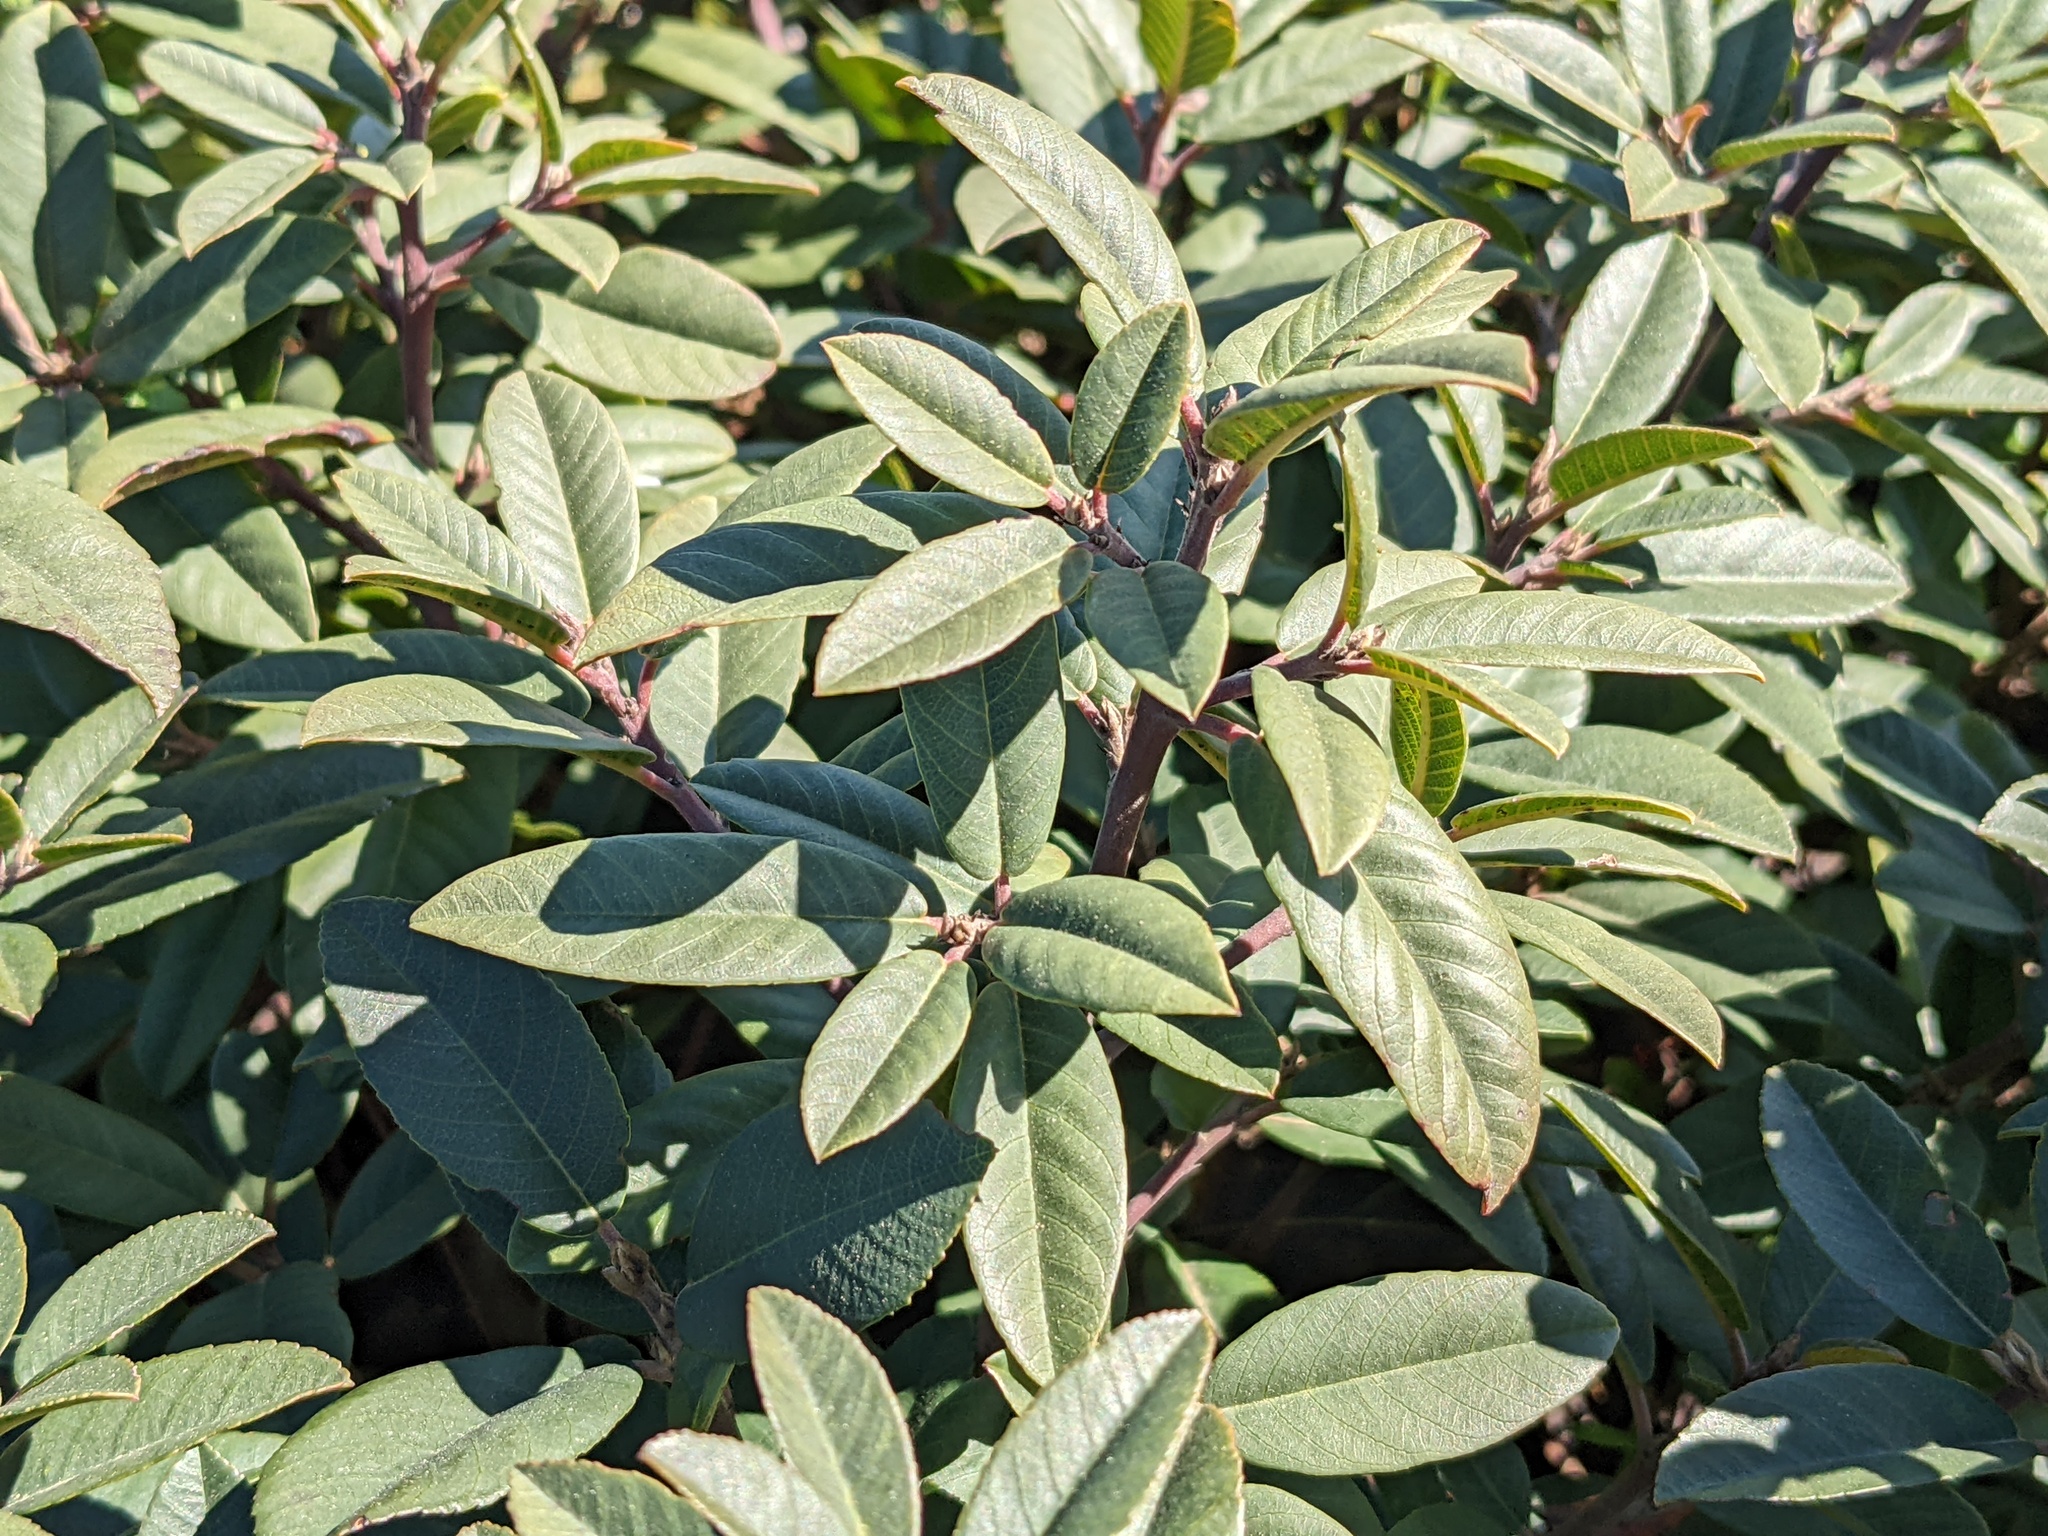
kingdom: Plantae
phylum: Tracheophyta
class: Magnoliopsida
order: Rosales
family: Rhamnaceae
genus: Frangula
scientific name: Frangula californica
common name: California buckthorn
